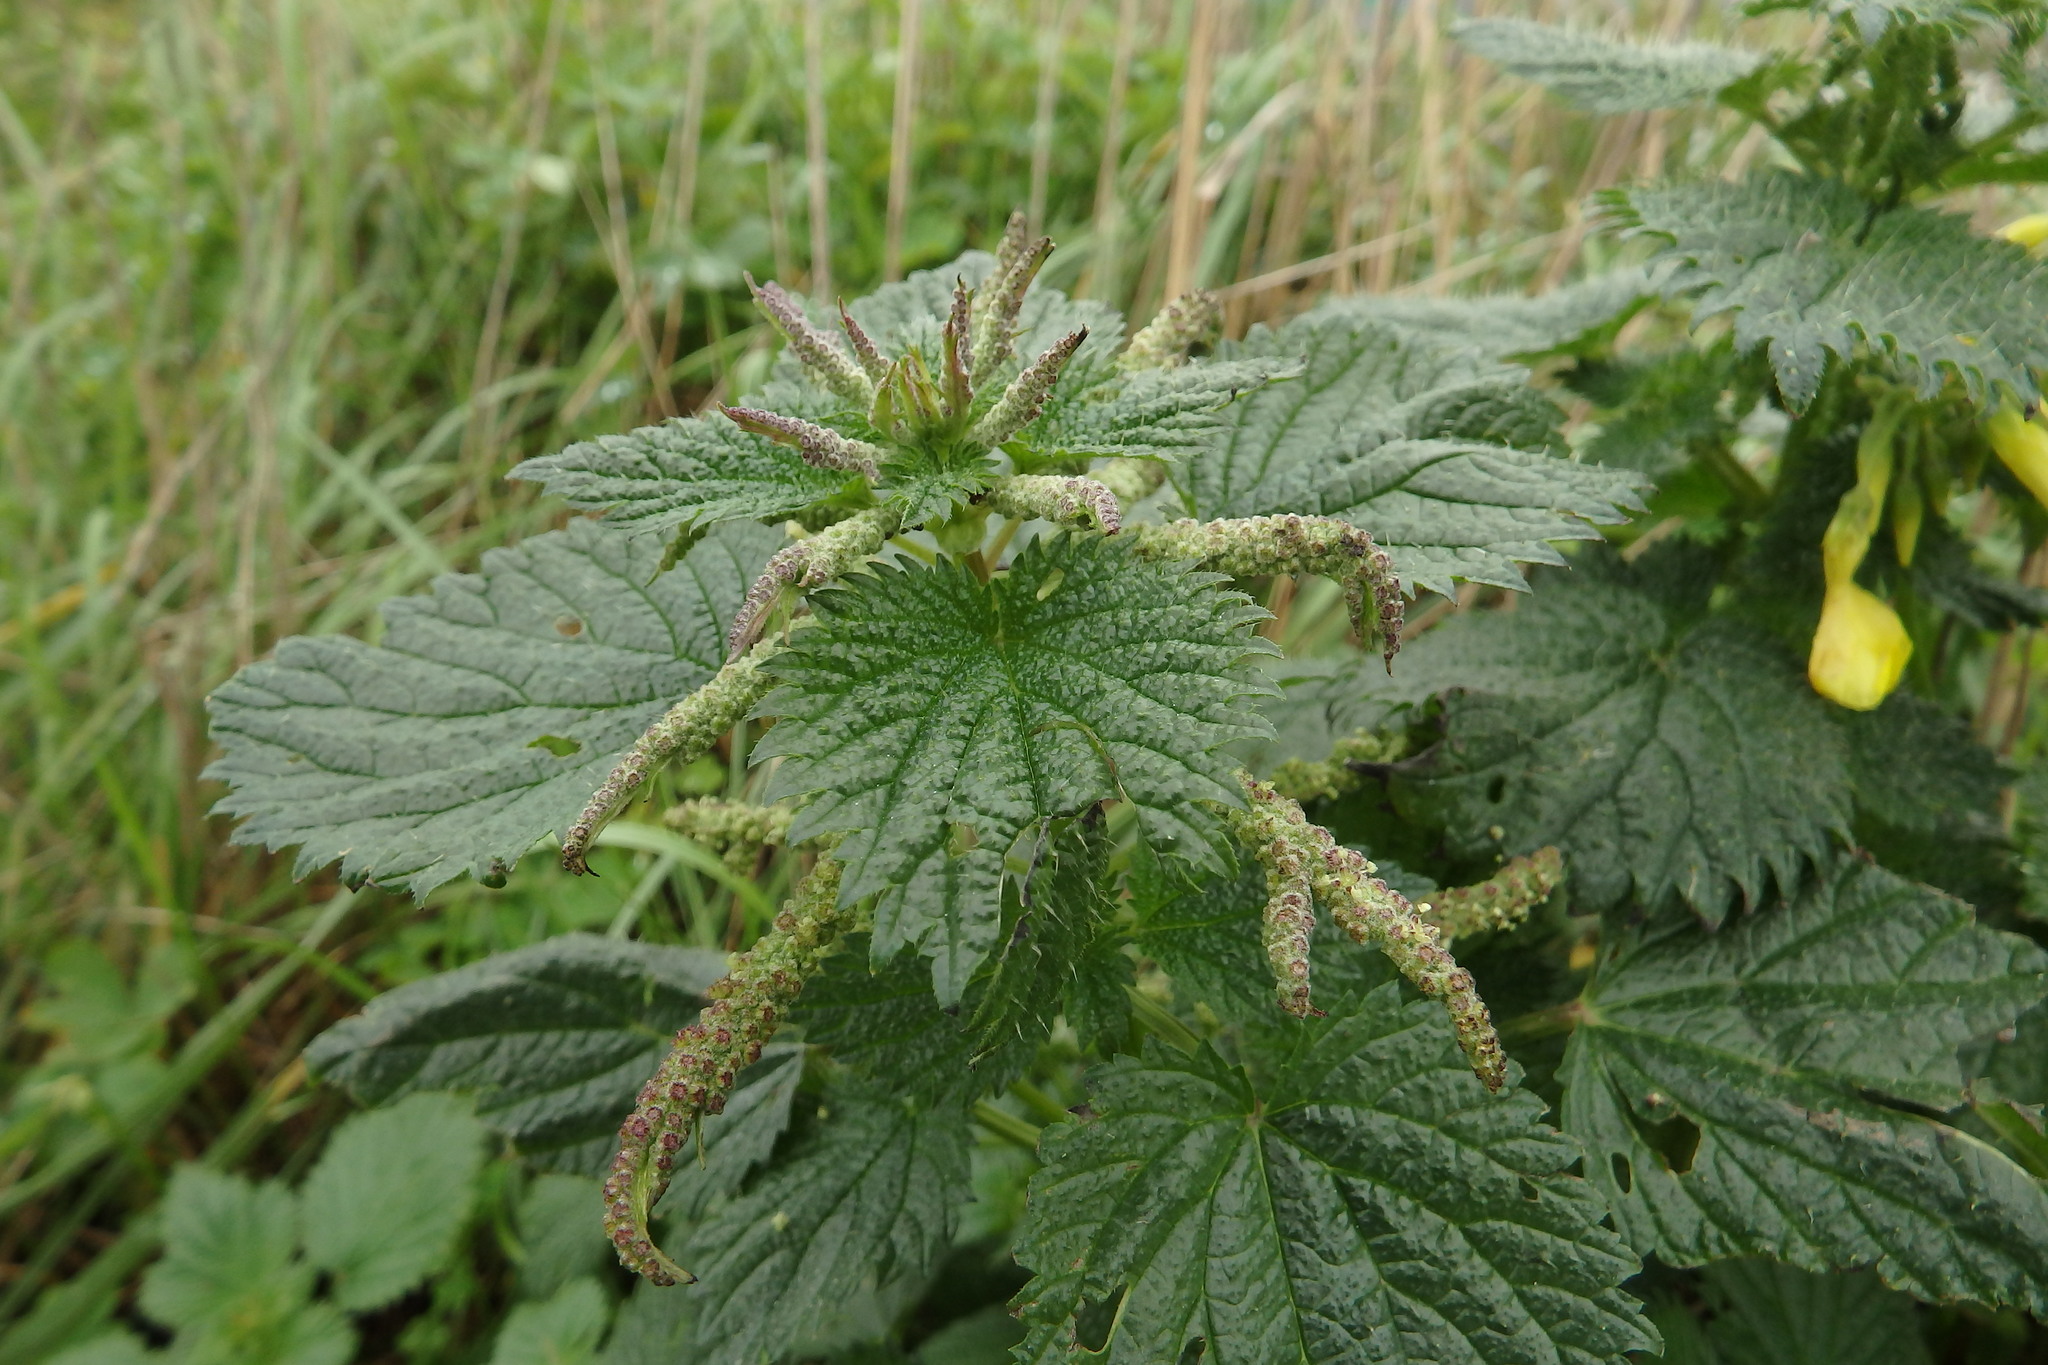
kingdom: Plantae
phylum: Tracheophyta
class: Magnoliopsida
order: Rosales
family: Urticaceae
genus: Urtica
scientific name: Urtica membranacea
